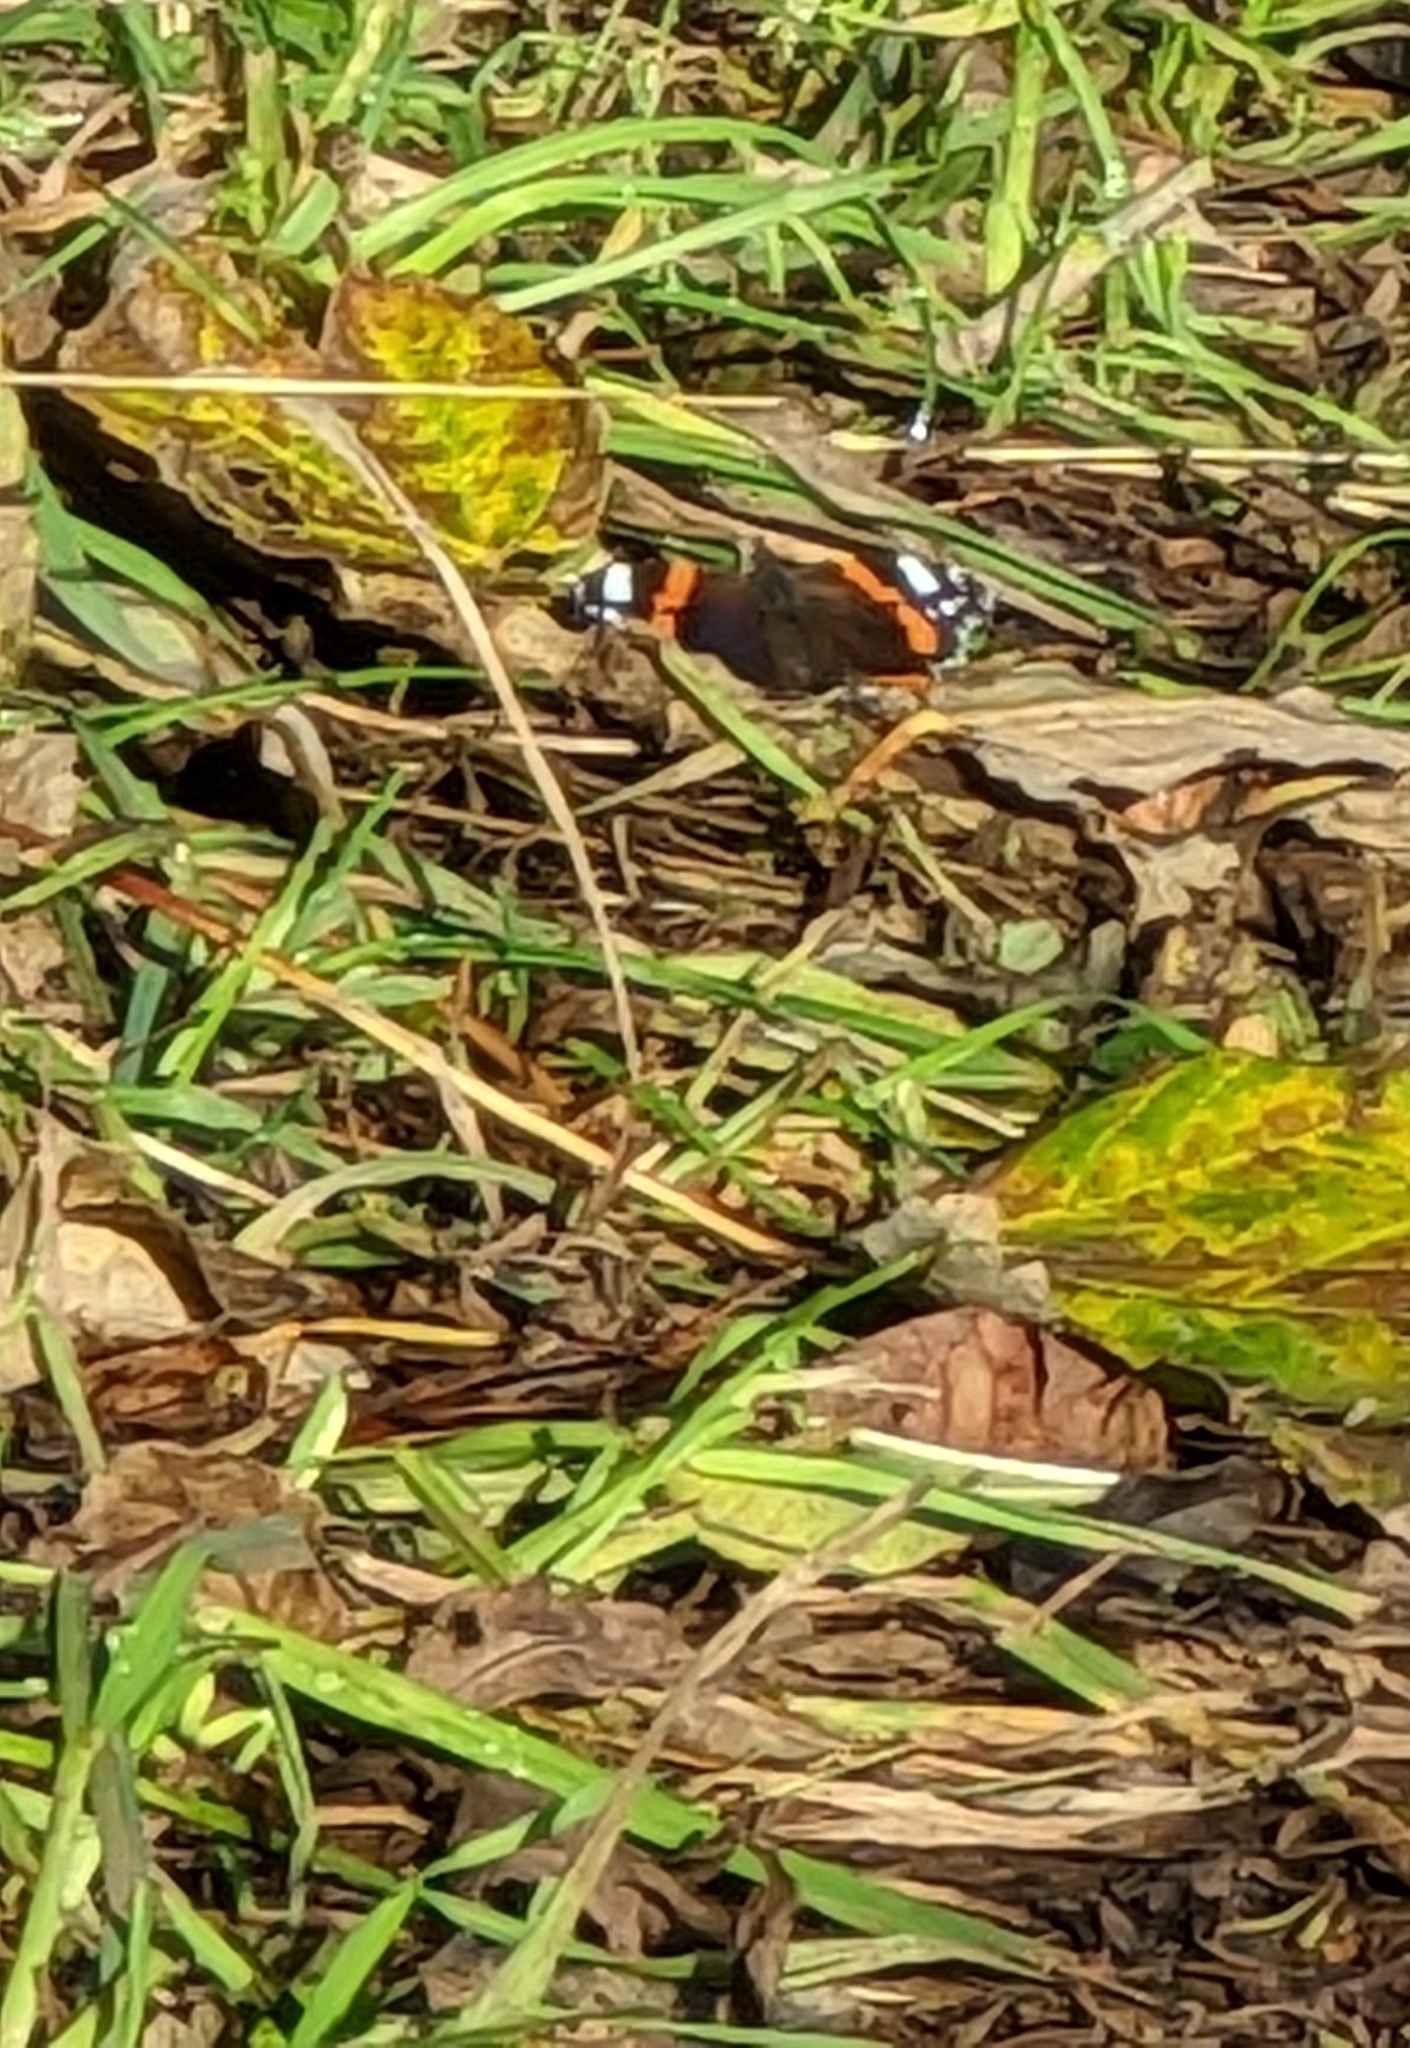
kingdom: Animalia
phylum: Arthropoda
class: Insecta
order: Lepidoptera
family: Nymphalidae
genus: Vanessa
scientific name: Vanessa atalanta
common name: Red admiral
